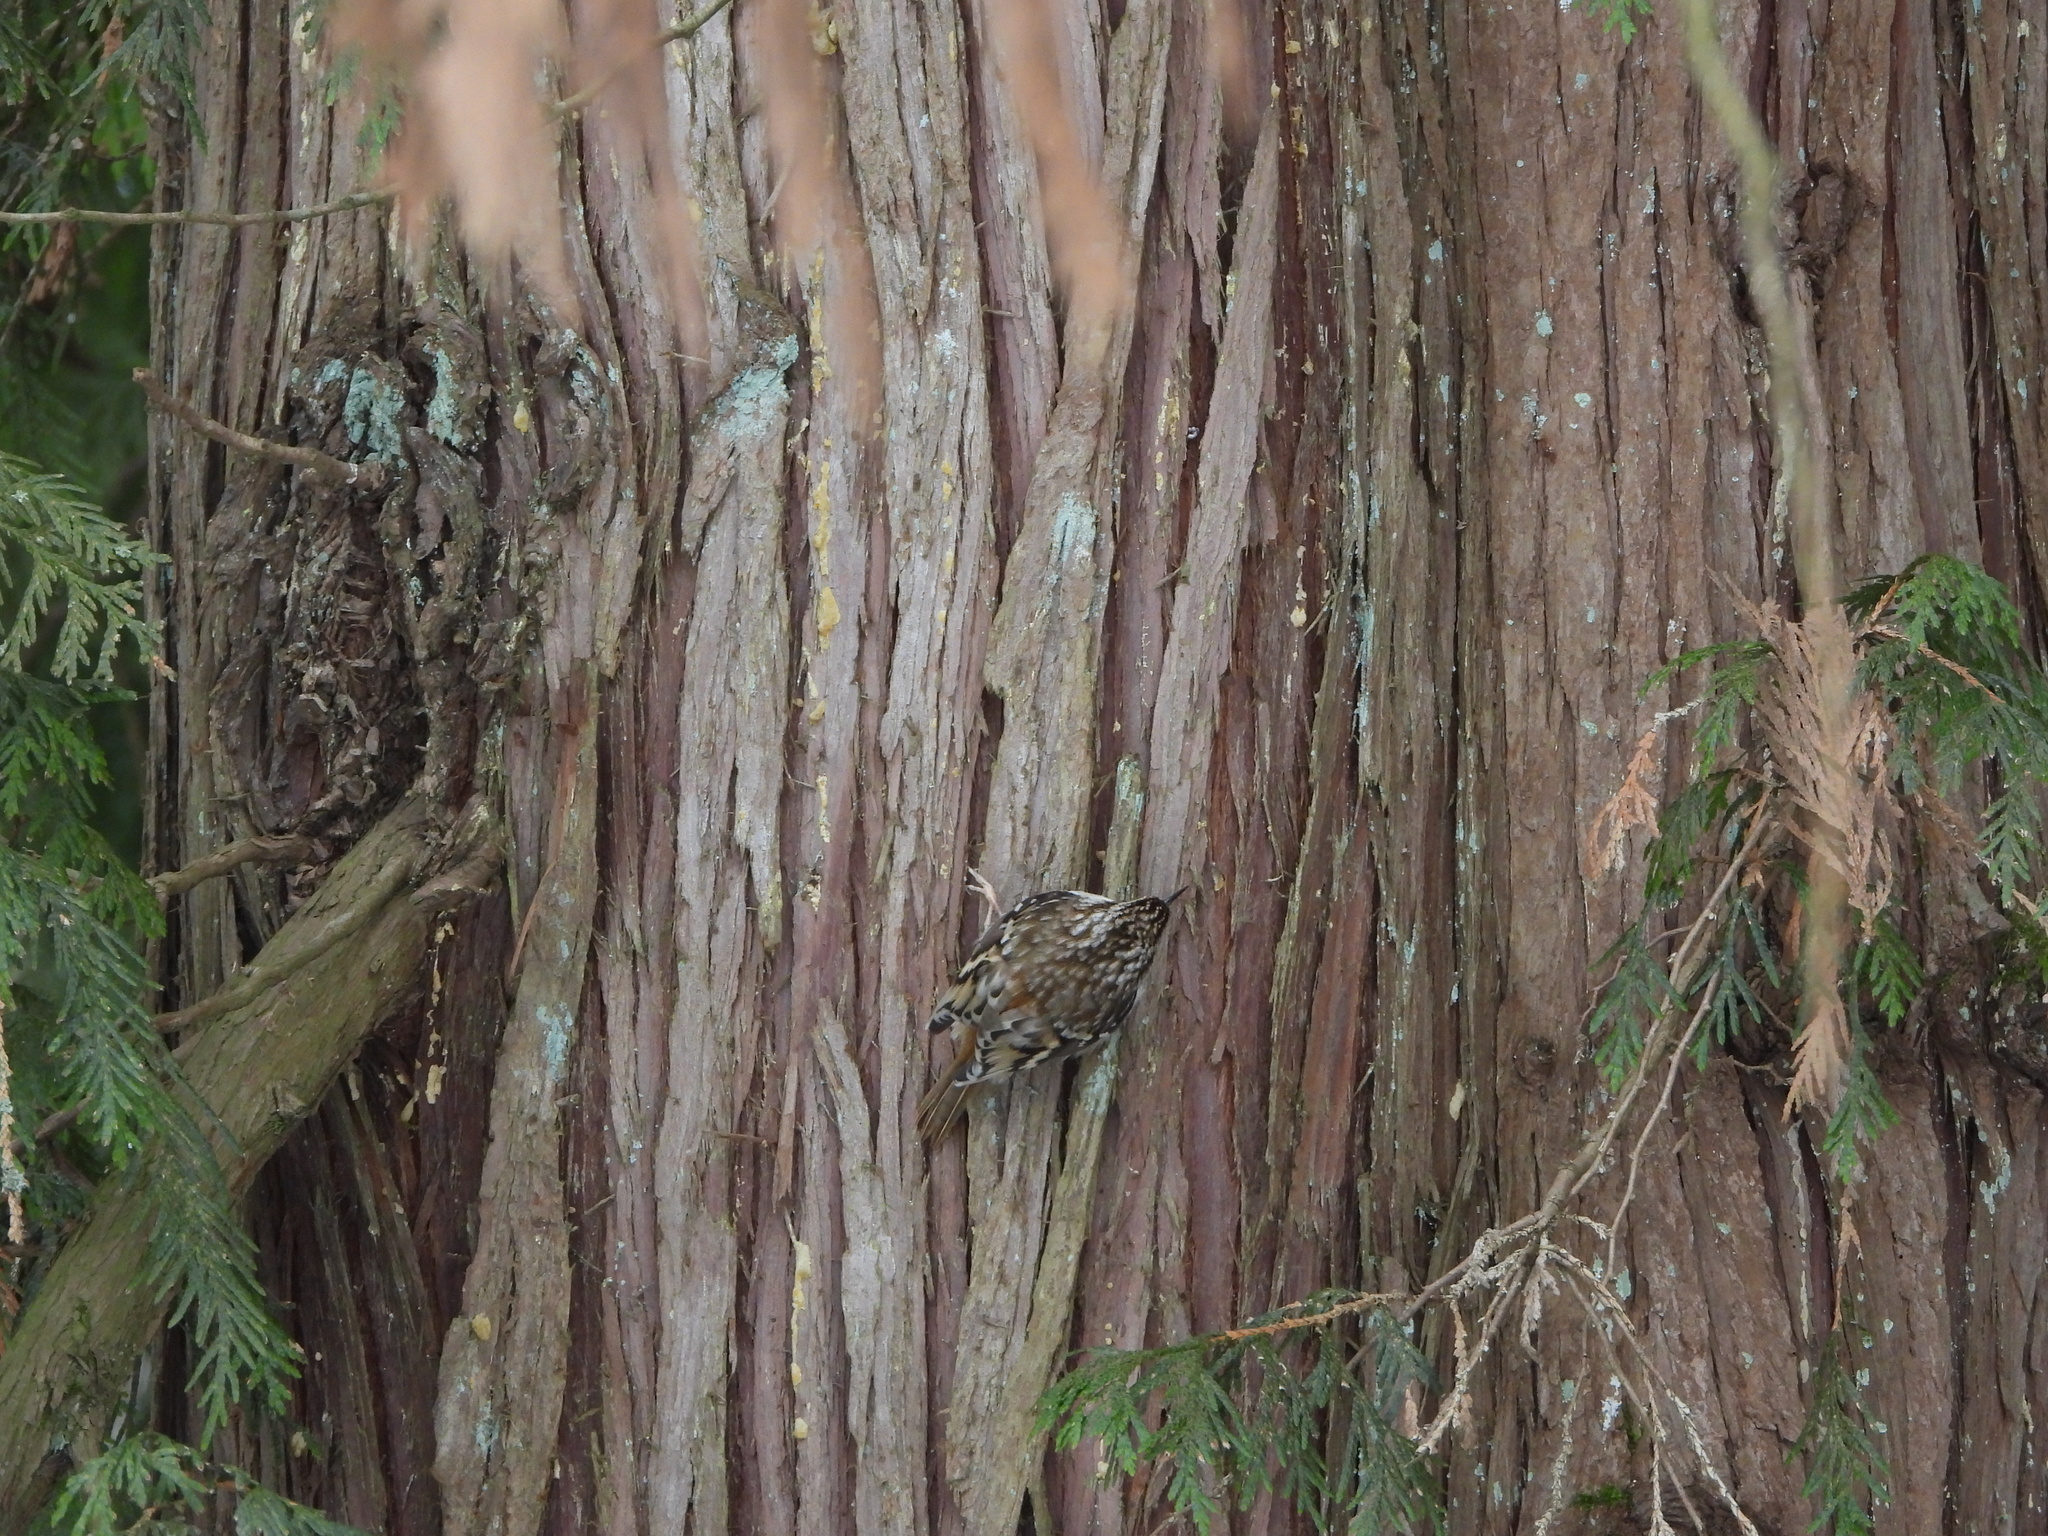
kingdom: Plantae
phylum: Tracheophyta
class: Pinopsida
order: Pinales
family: Cupressaceae
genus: Thuja
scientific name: Thuja plicata
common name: Western red-cedar
